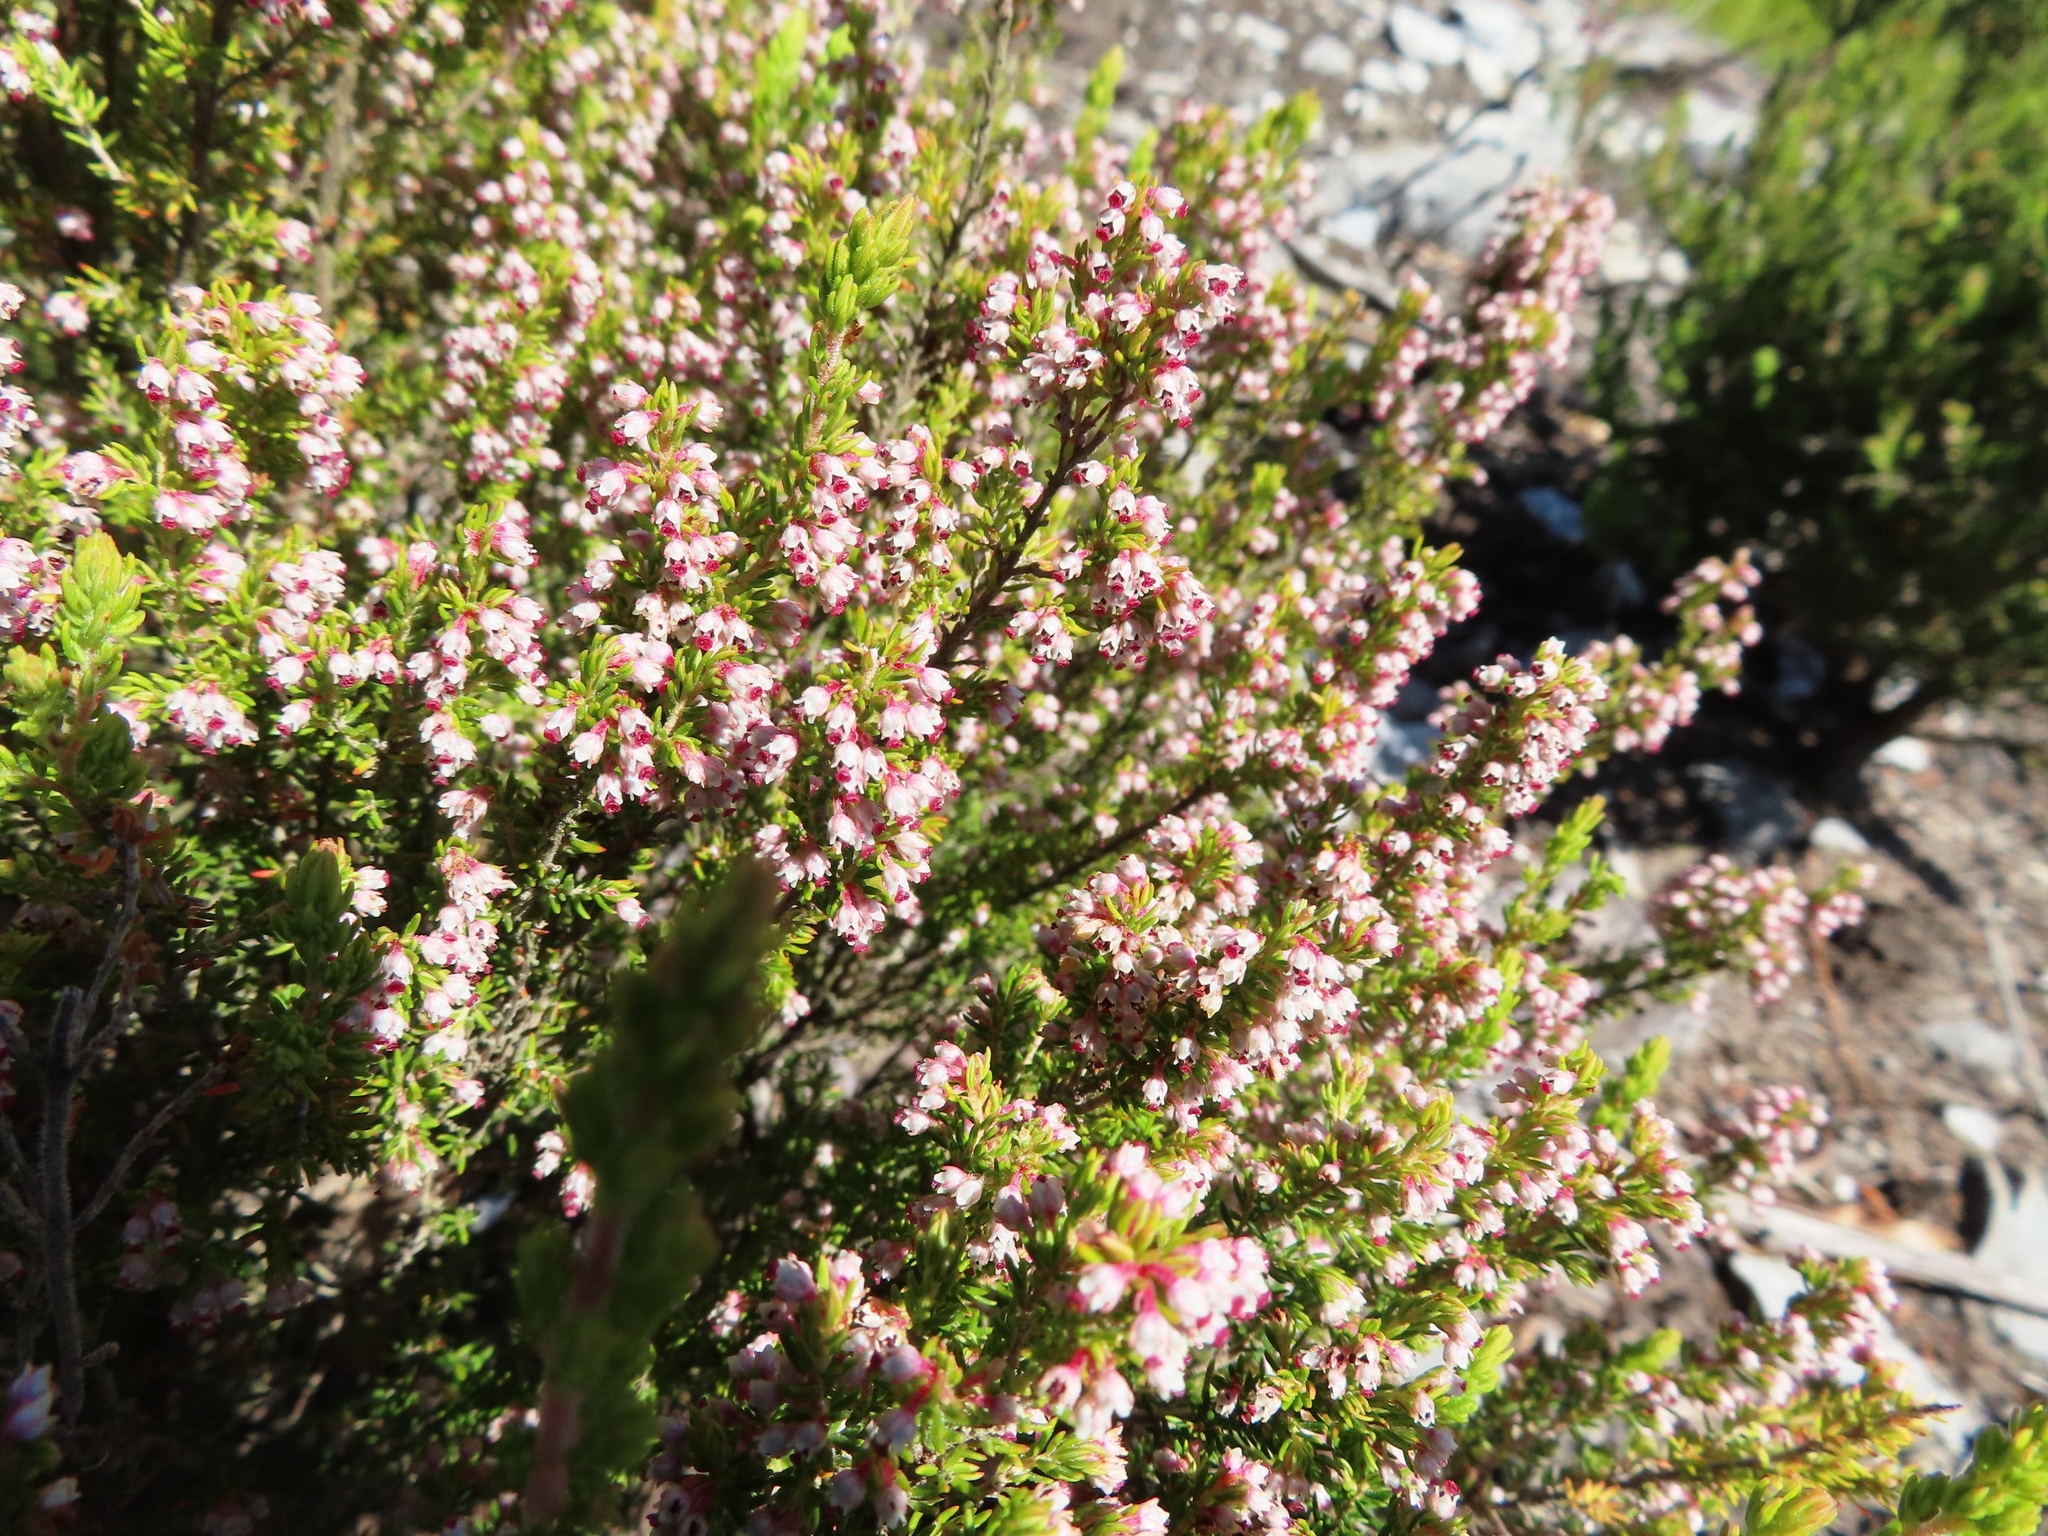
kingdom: Plantae
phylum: Tracheophyta
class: Magnoliopsida
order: Ericales
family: Ericaceae
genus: Erica
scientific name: Erica hispidula
